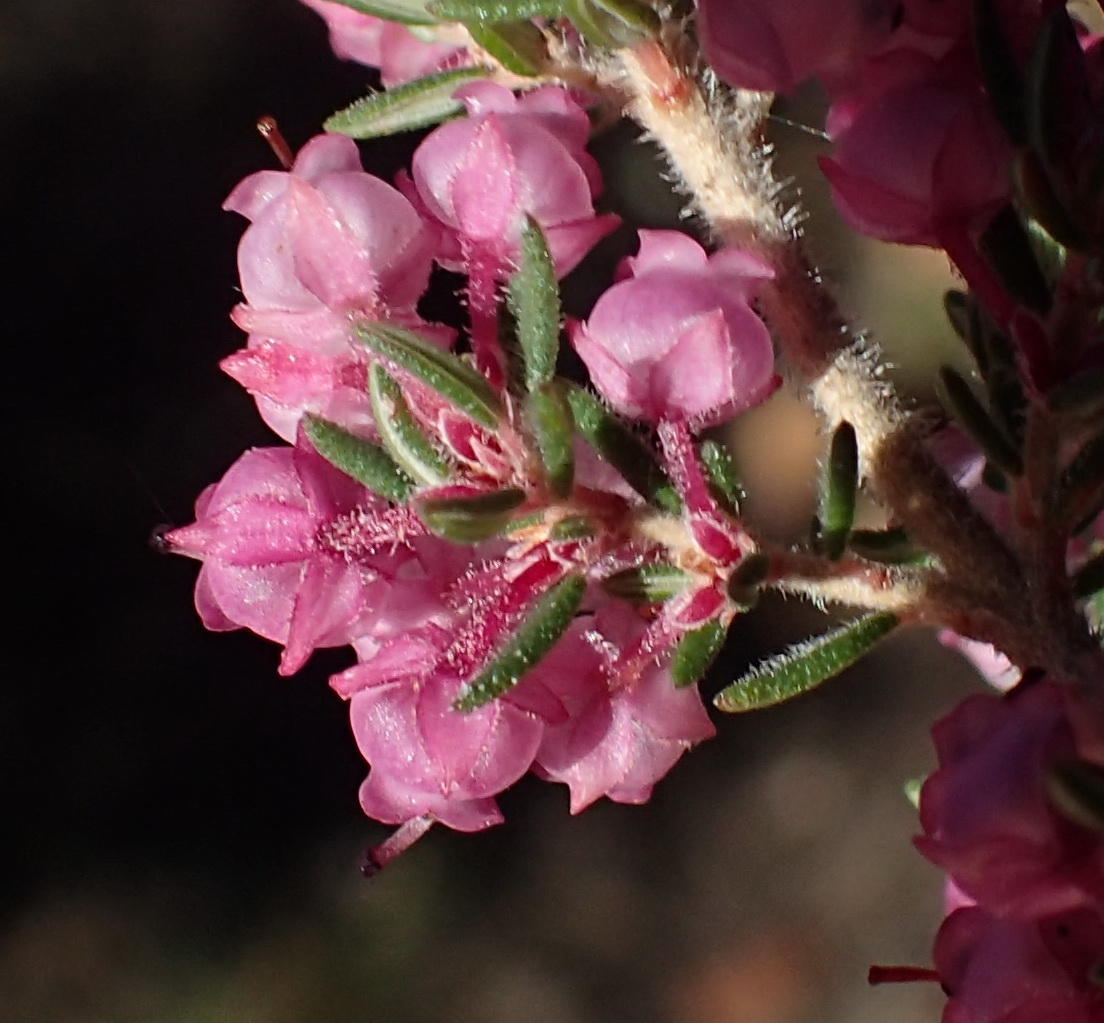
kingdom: Plantae
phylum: Tracheophyta
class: Magnoliopsida
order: Ericales
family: Ericaceae
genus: Erica
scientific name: Erica grata
